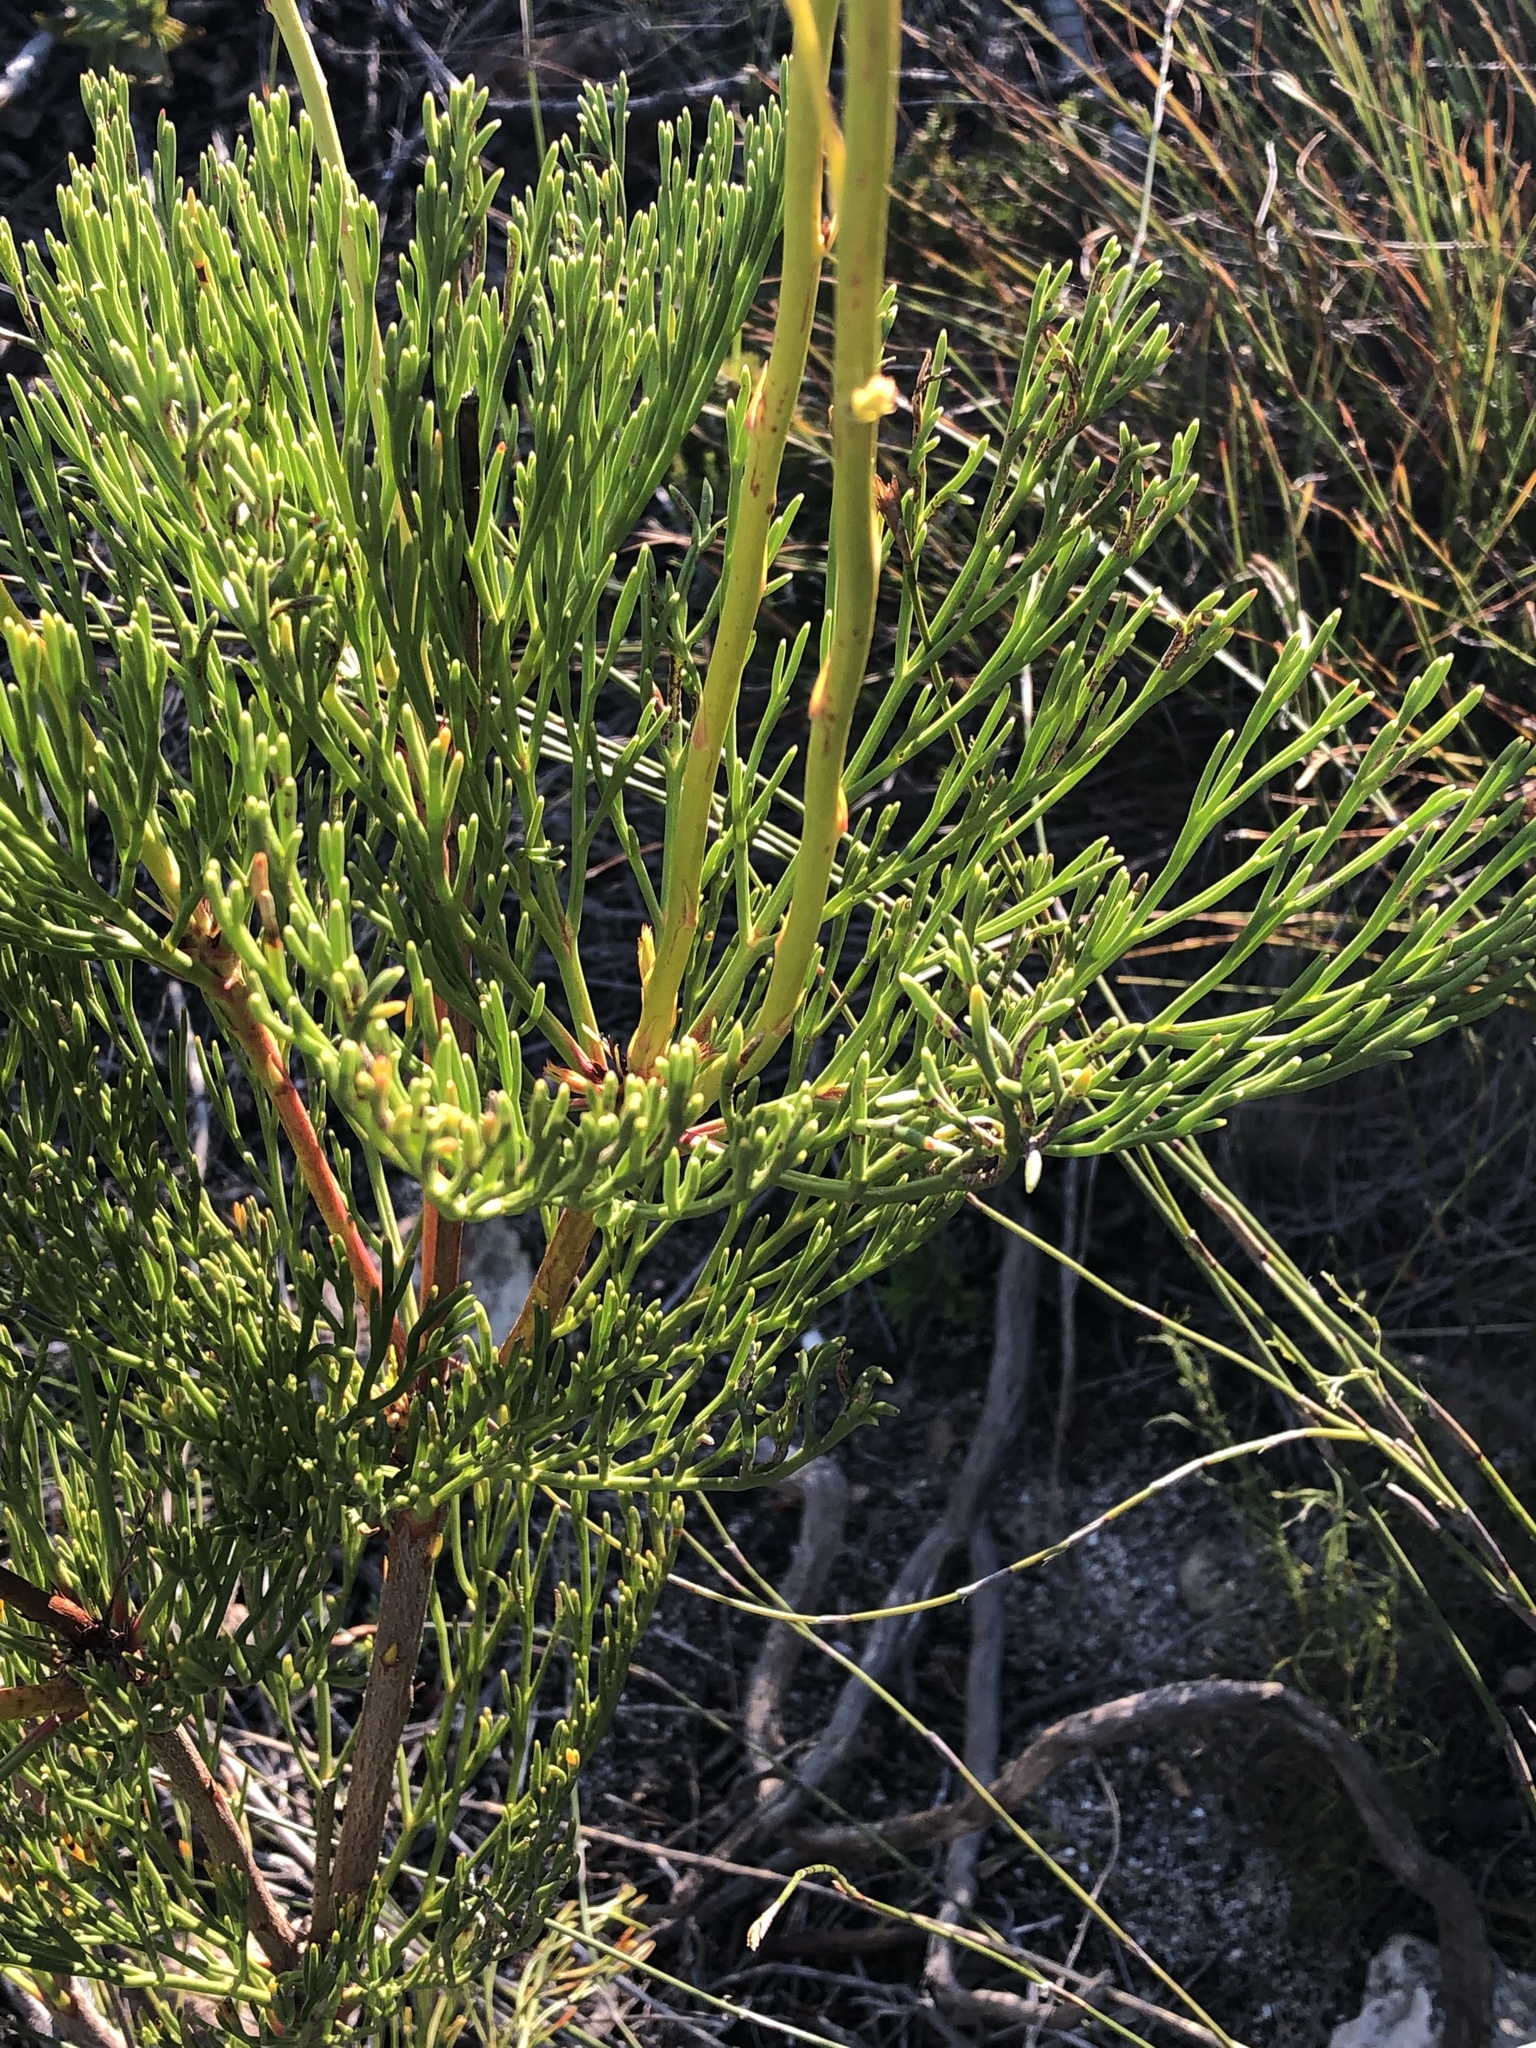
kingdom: Plantae
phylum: Tracheophyta
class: Magnoliopsida
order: Proteales
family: Proteaceae
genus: Serruria
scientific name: Serruria elongata
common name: Long-stalk spiderhead
